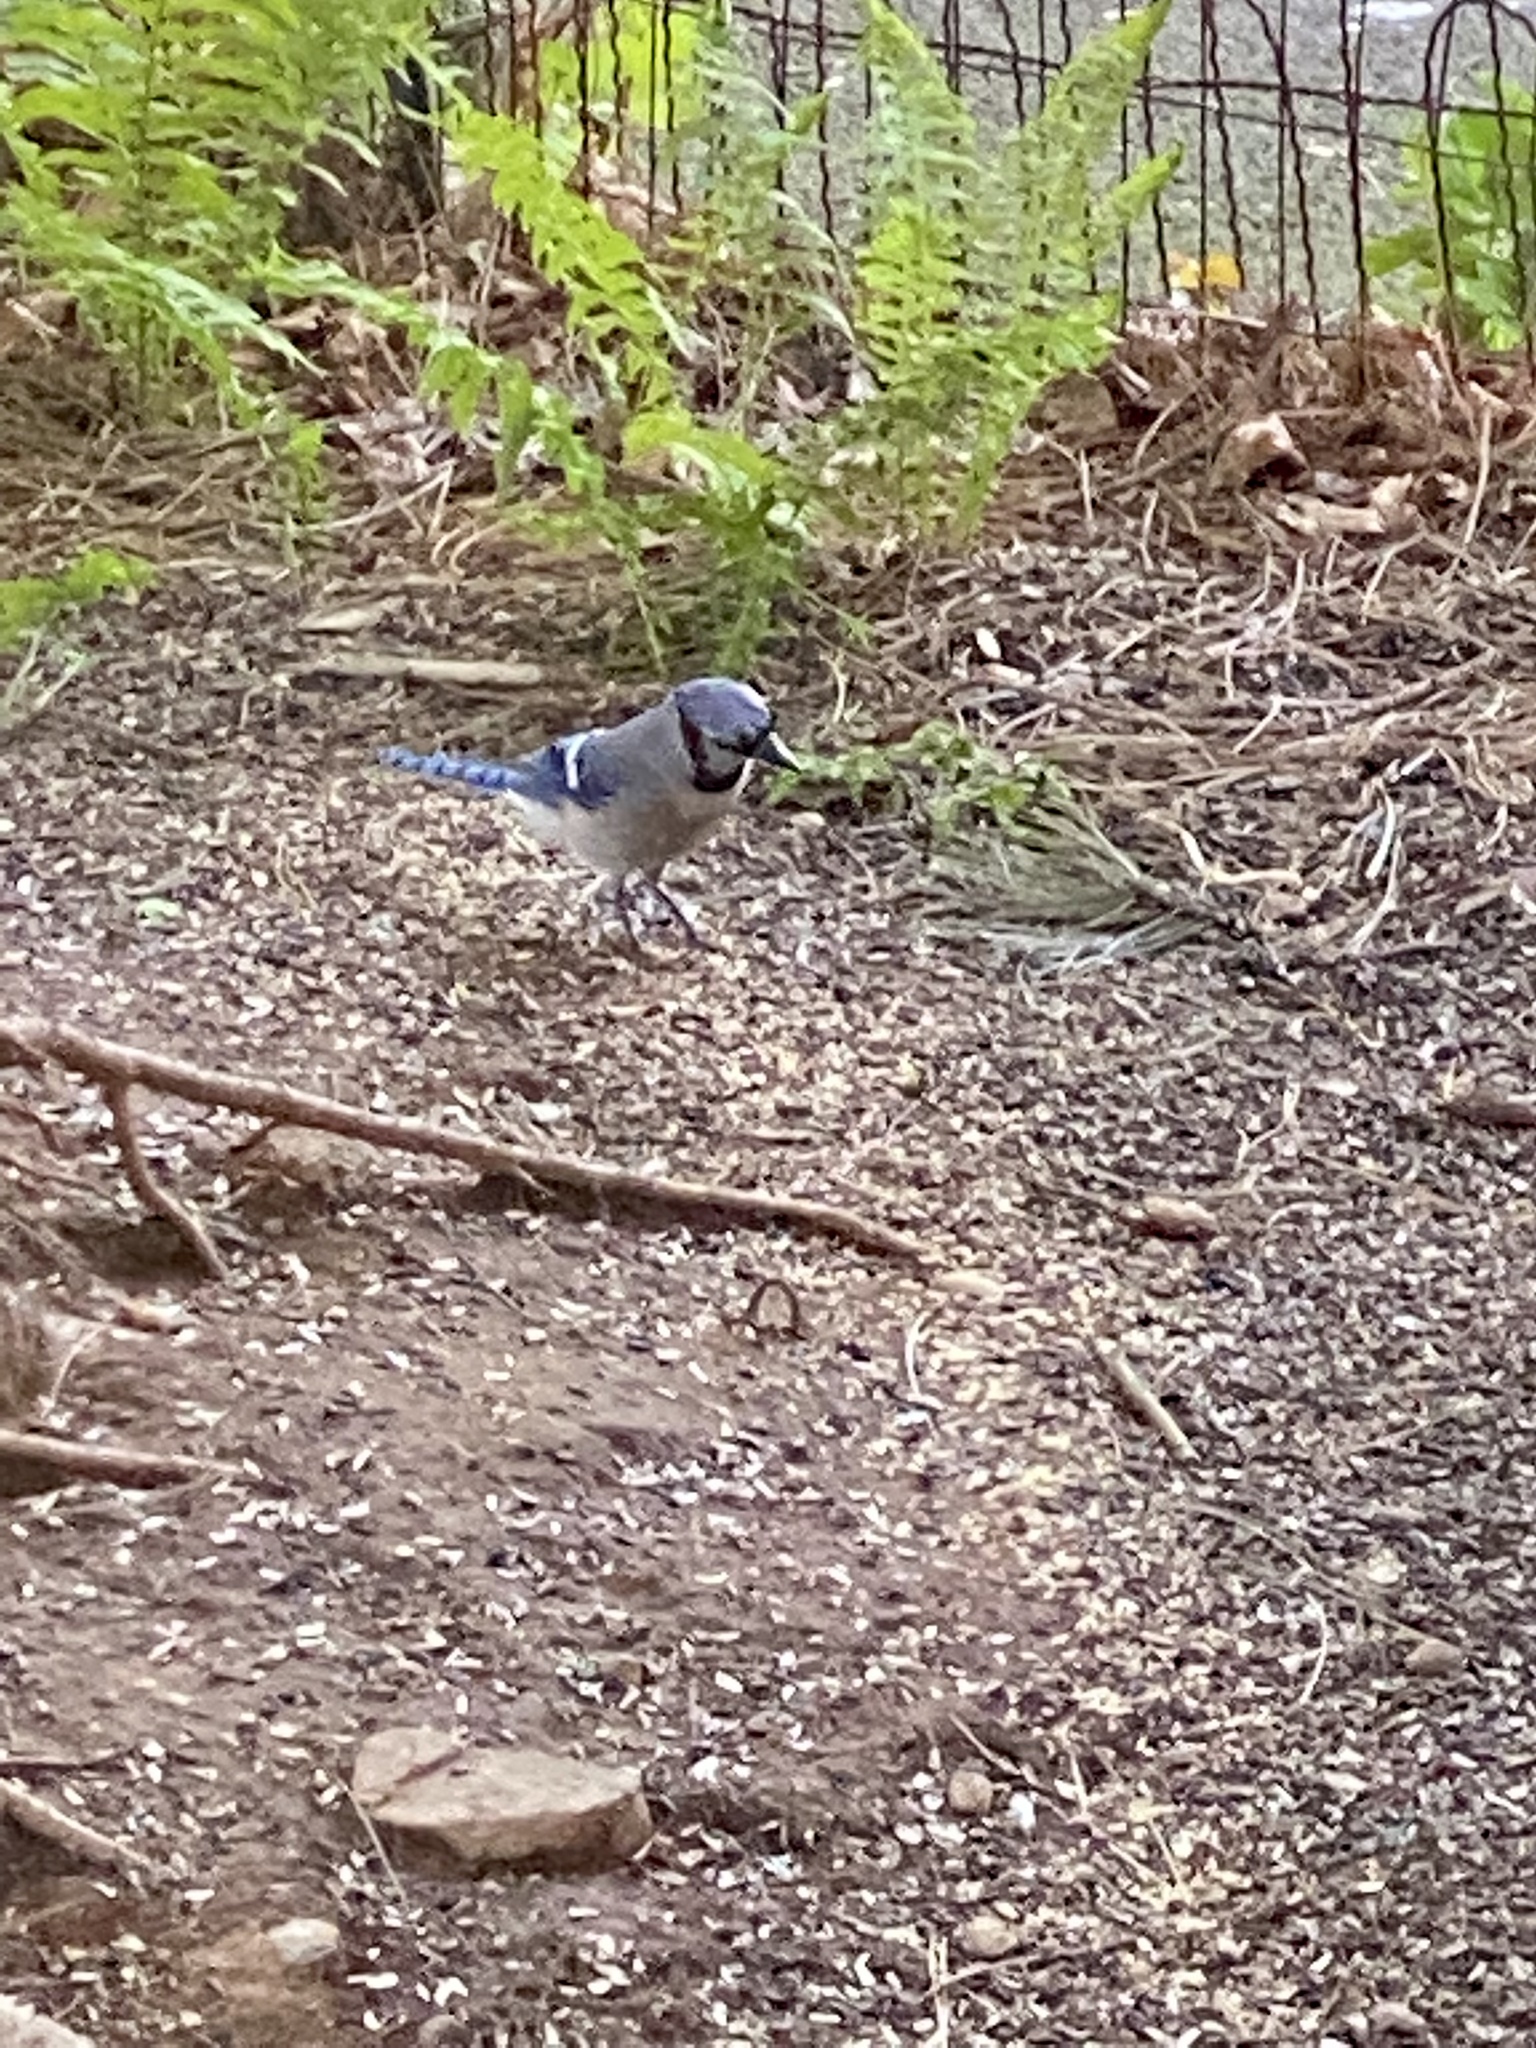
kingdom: Animalia
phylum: Chordata
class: Aves
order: Passeriformes
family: Corvidae
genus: Cyanocitta
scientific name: Cyanocitta cristata
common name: Blue jay
